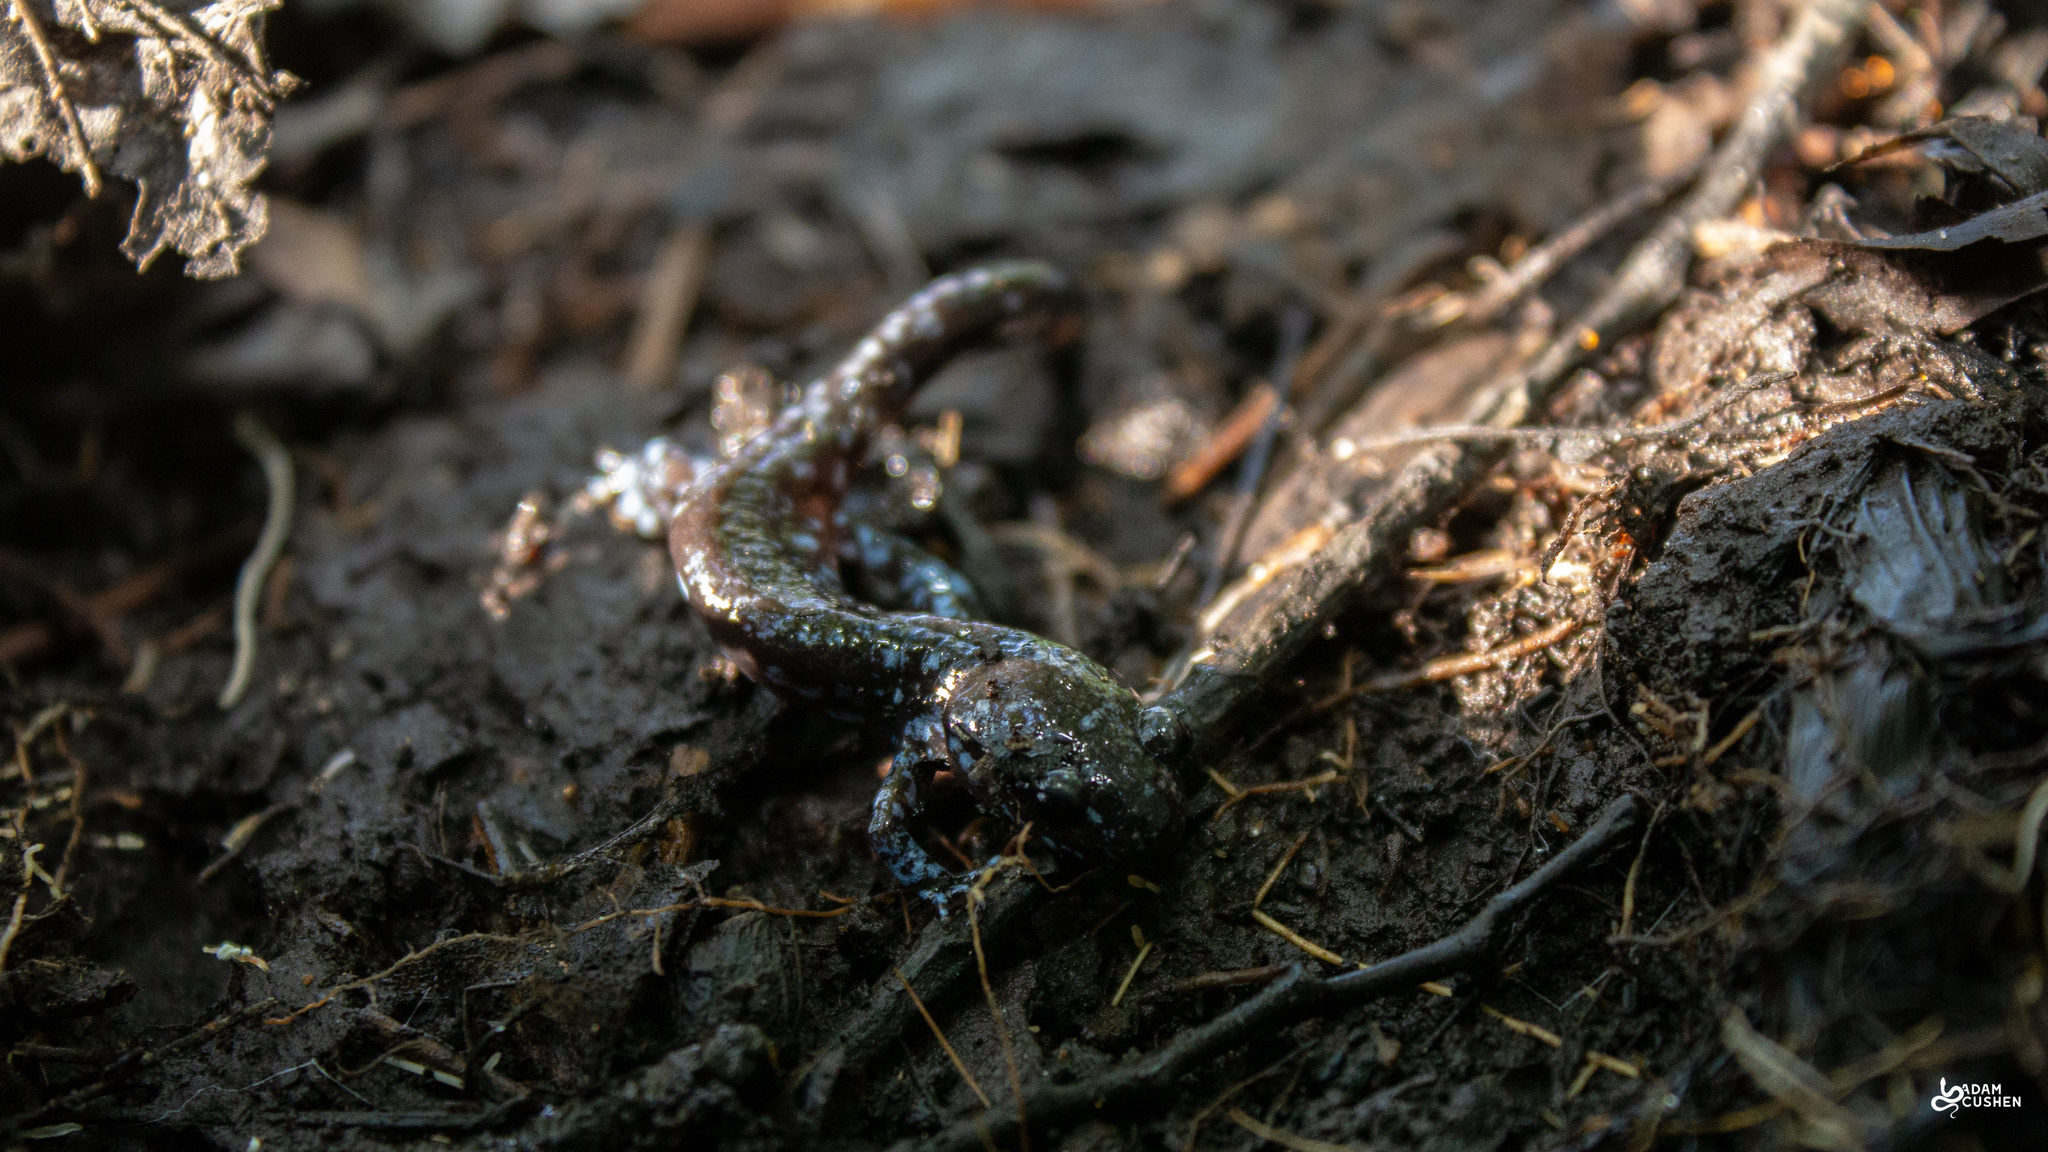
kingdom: Animalia
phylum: Chordata
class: Amphibia
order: Caudata
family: Ambystomatidae
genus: Ambystoma
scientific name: Ambystoma laterale
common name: Blue-spotted salamander
